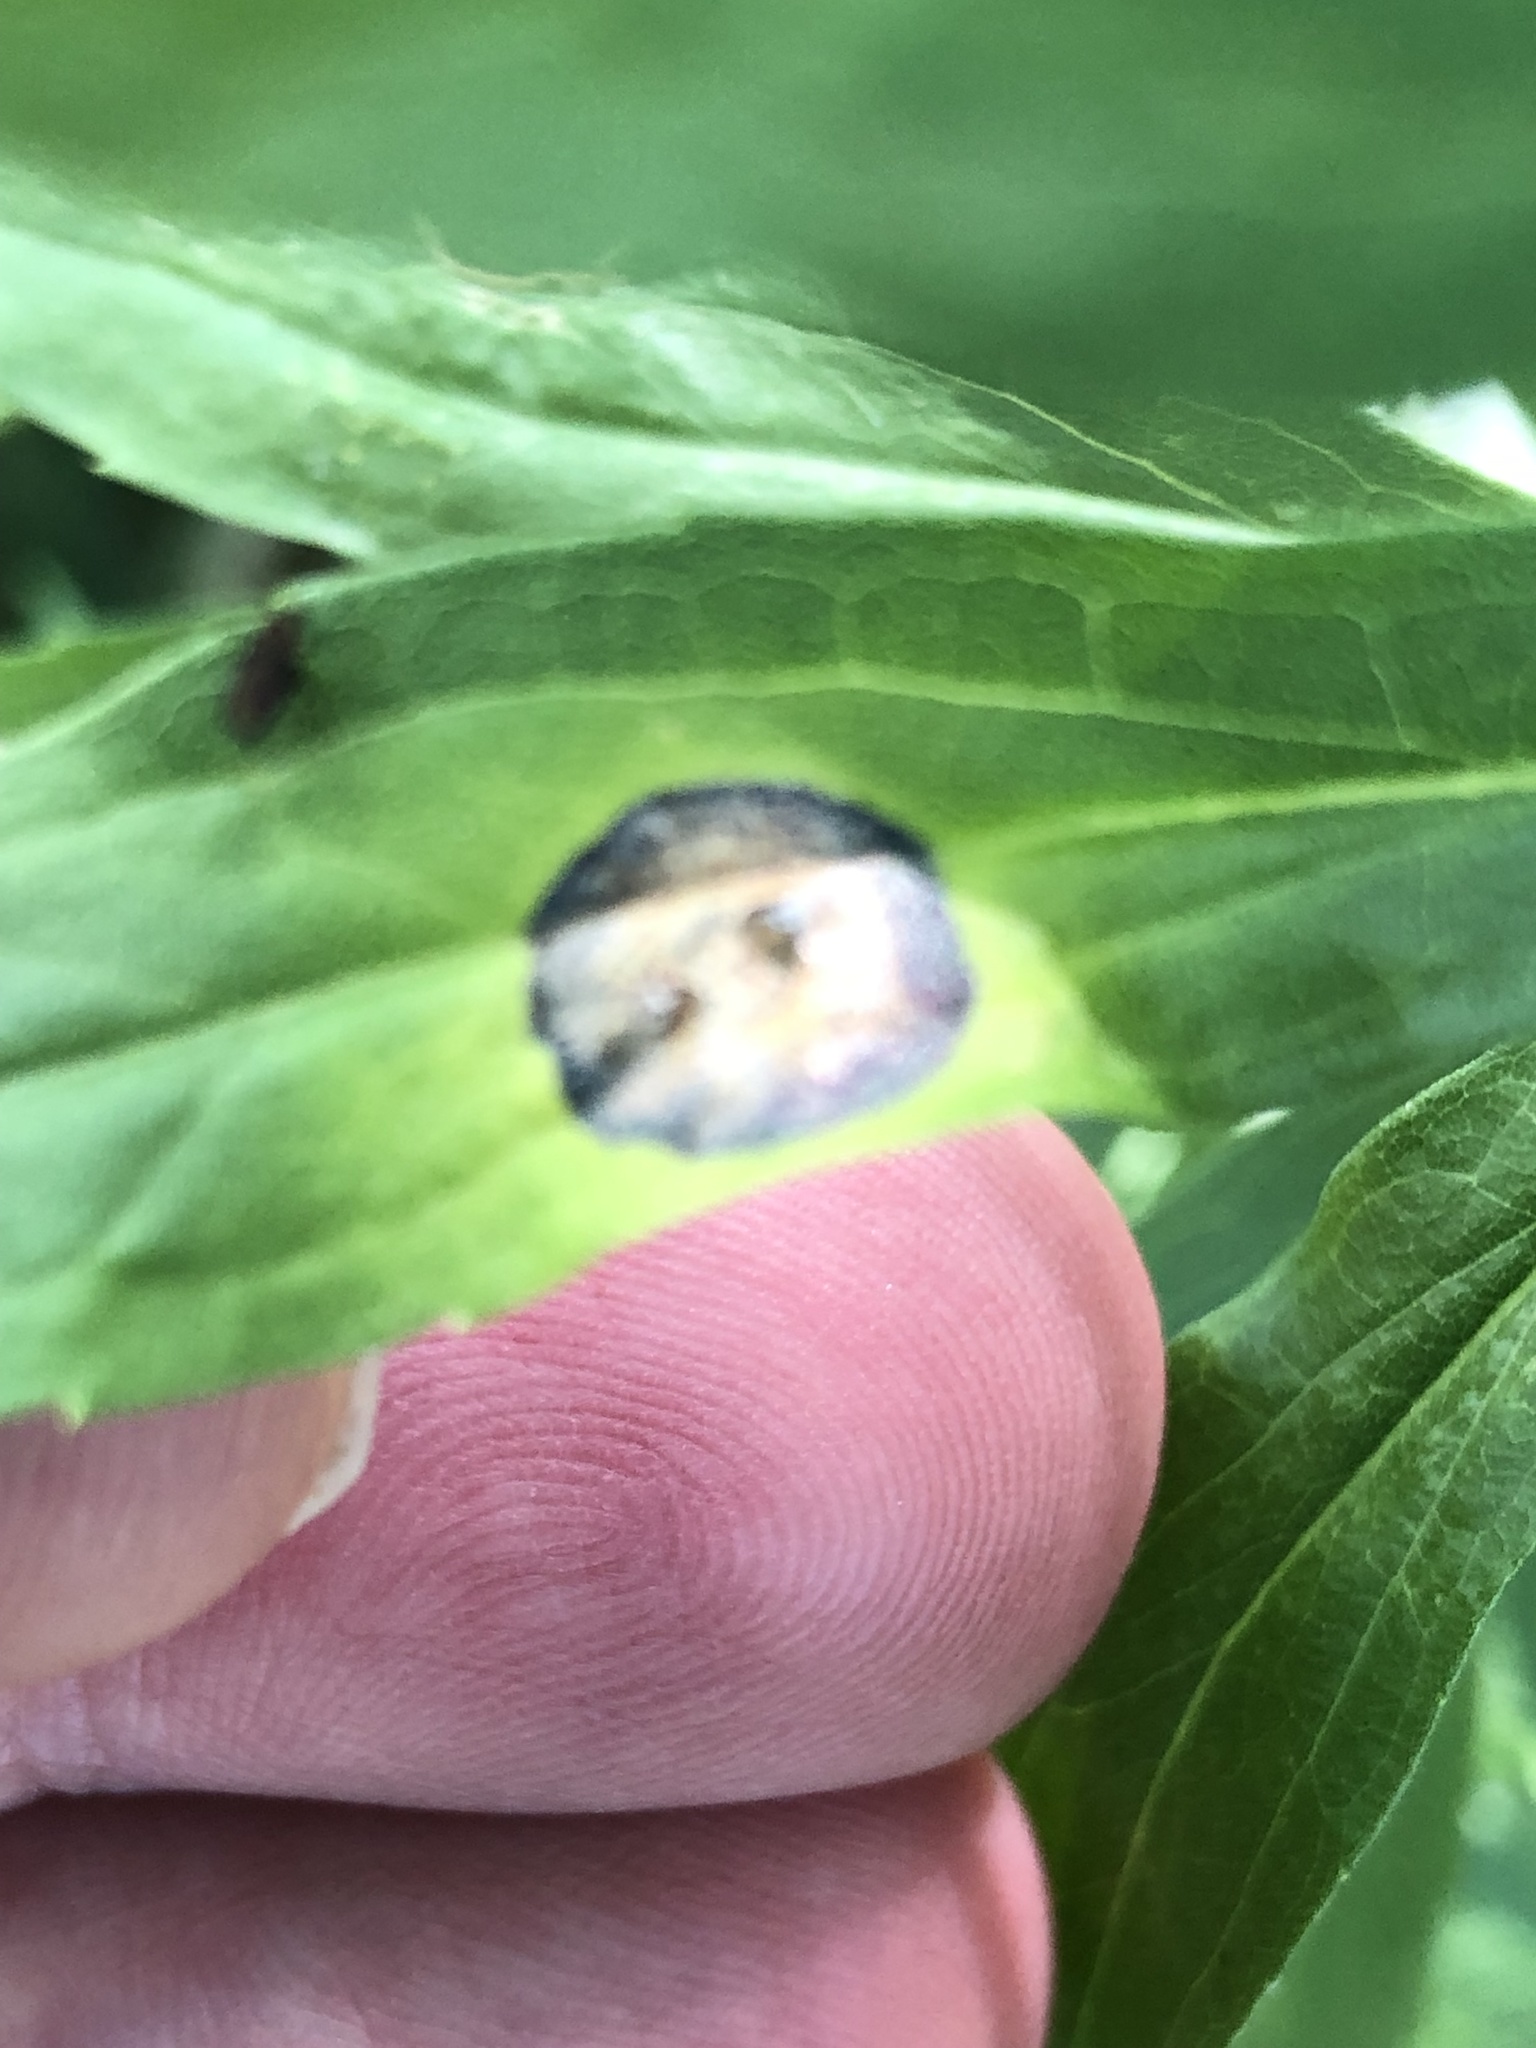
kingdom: Animalia
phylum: Arthropoda
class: Insecta
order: Diptera
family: Cecidomyiidae
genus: Asteromyia
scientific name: Asteromyia carbonifera
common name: Carbonifera goldenrod gall midge
